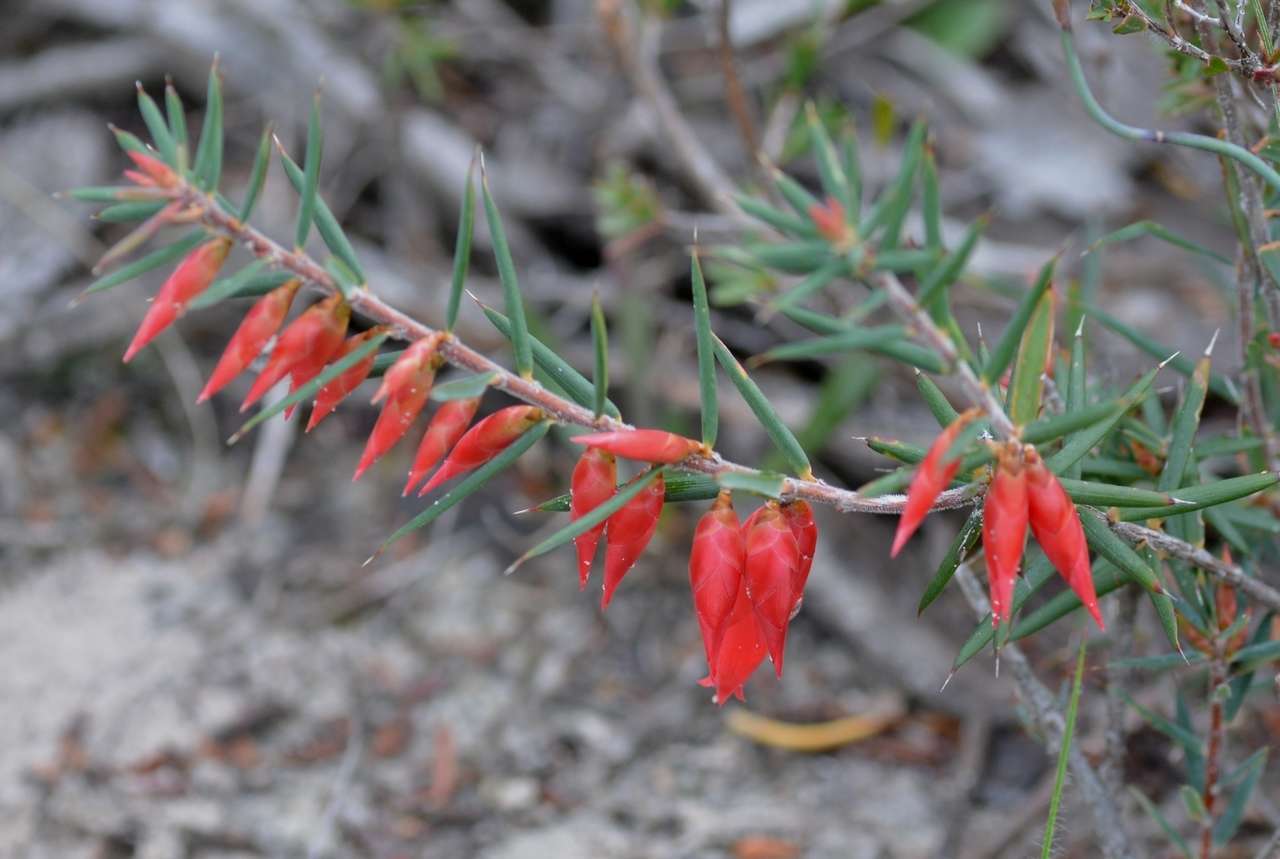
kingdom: Plantae
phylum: Tracheophyta
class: Magnoliopsida
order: Ericales
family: Ericaceae
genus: Stenanthera
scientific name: Stenanthera conostephioides
